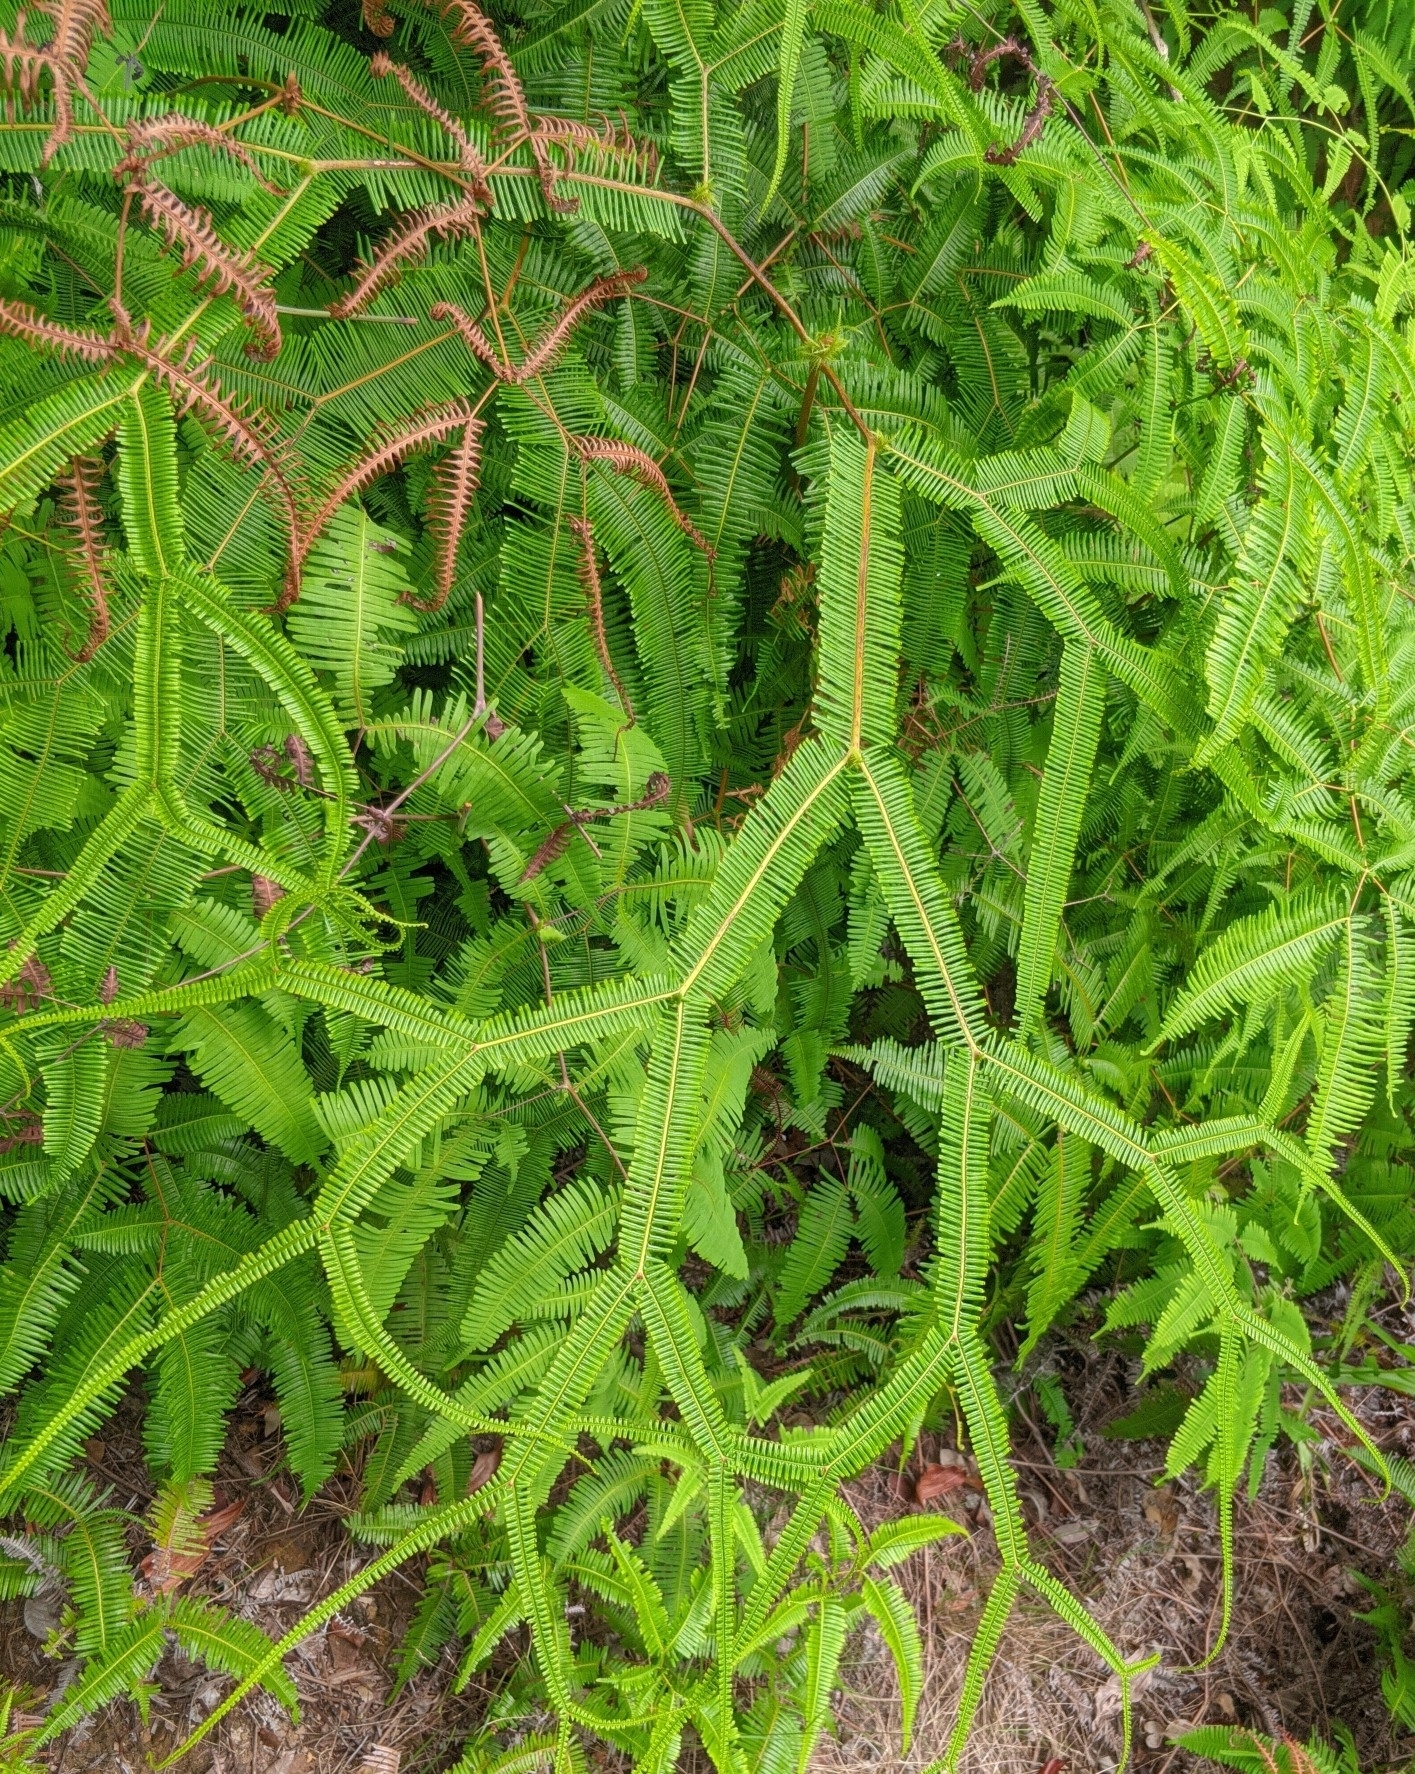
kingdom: Plantae
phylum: Tracheophyta
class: Polypodiopsida
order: Gleicheniales
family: Gleicheniaceae
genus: Sticherus
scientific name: Sticherus truncatus
